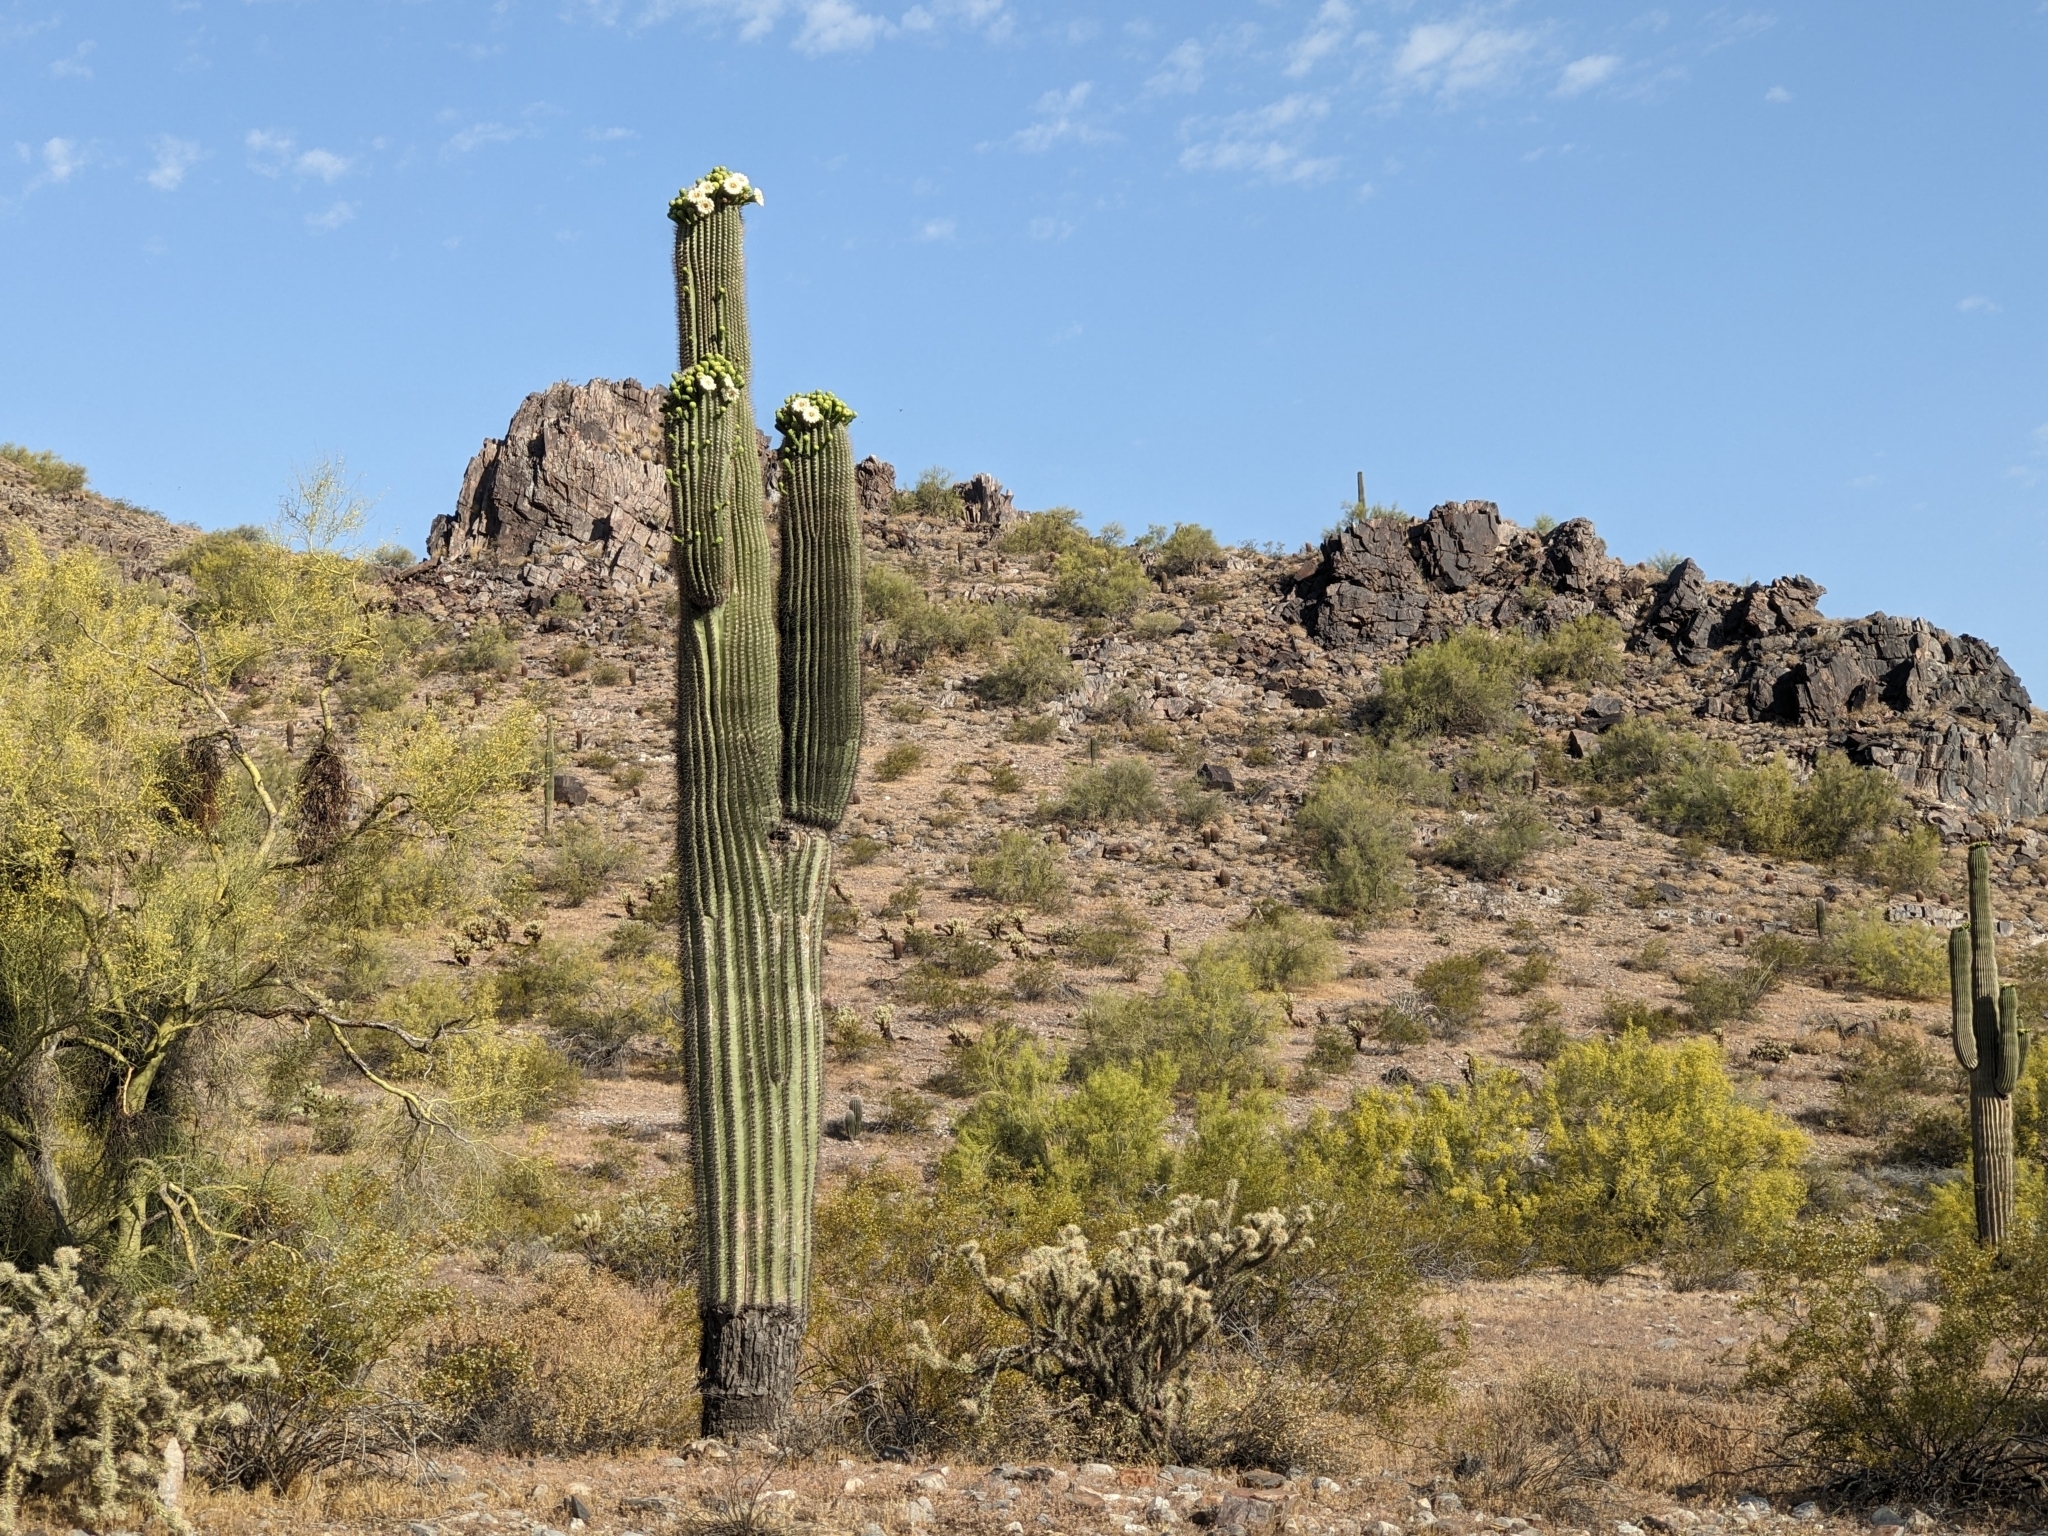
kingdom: Plantae
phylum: Tracheophyta
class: Magnoliopsida
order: Caryophyllales
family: Cactaceae
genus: Carnegiea
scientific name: Carnegiea gigantea
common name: Saguaro
